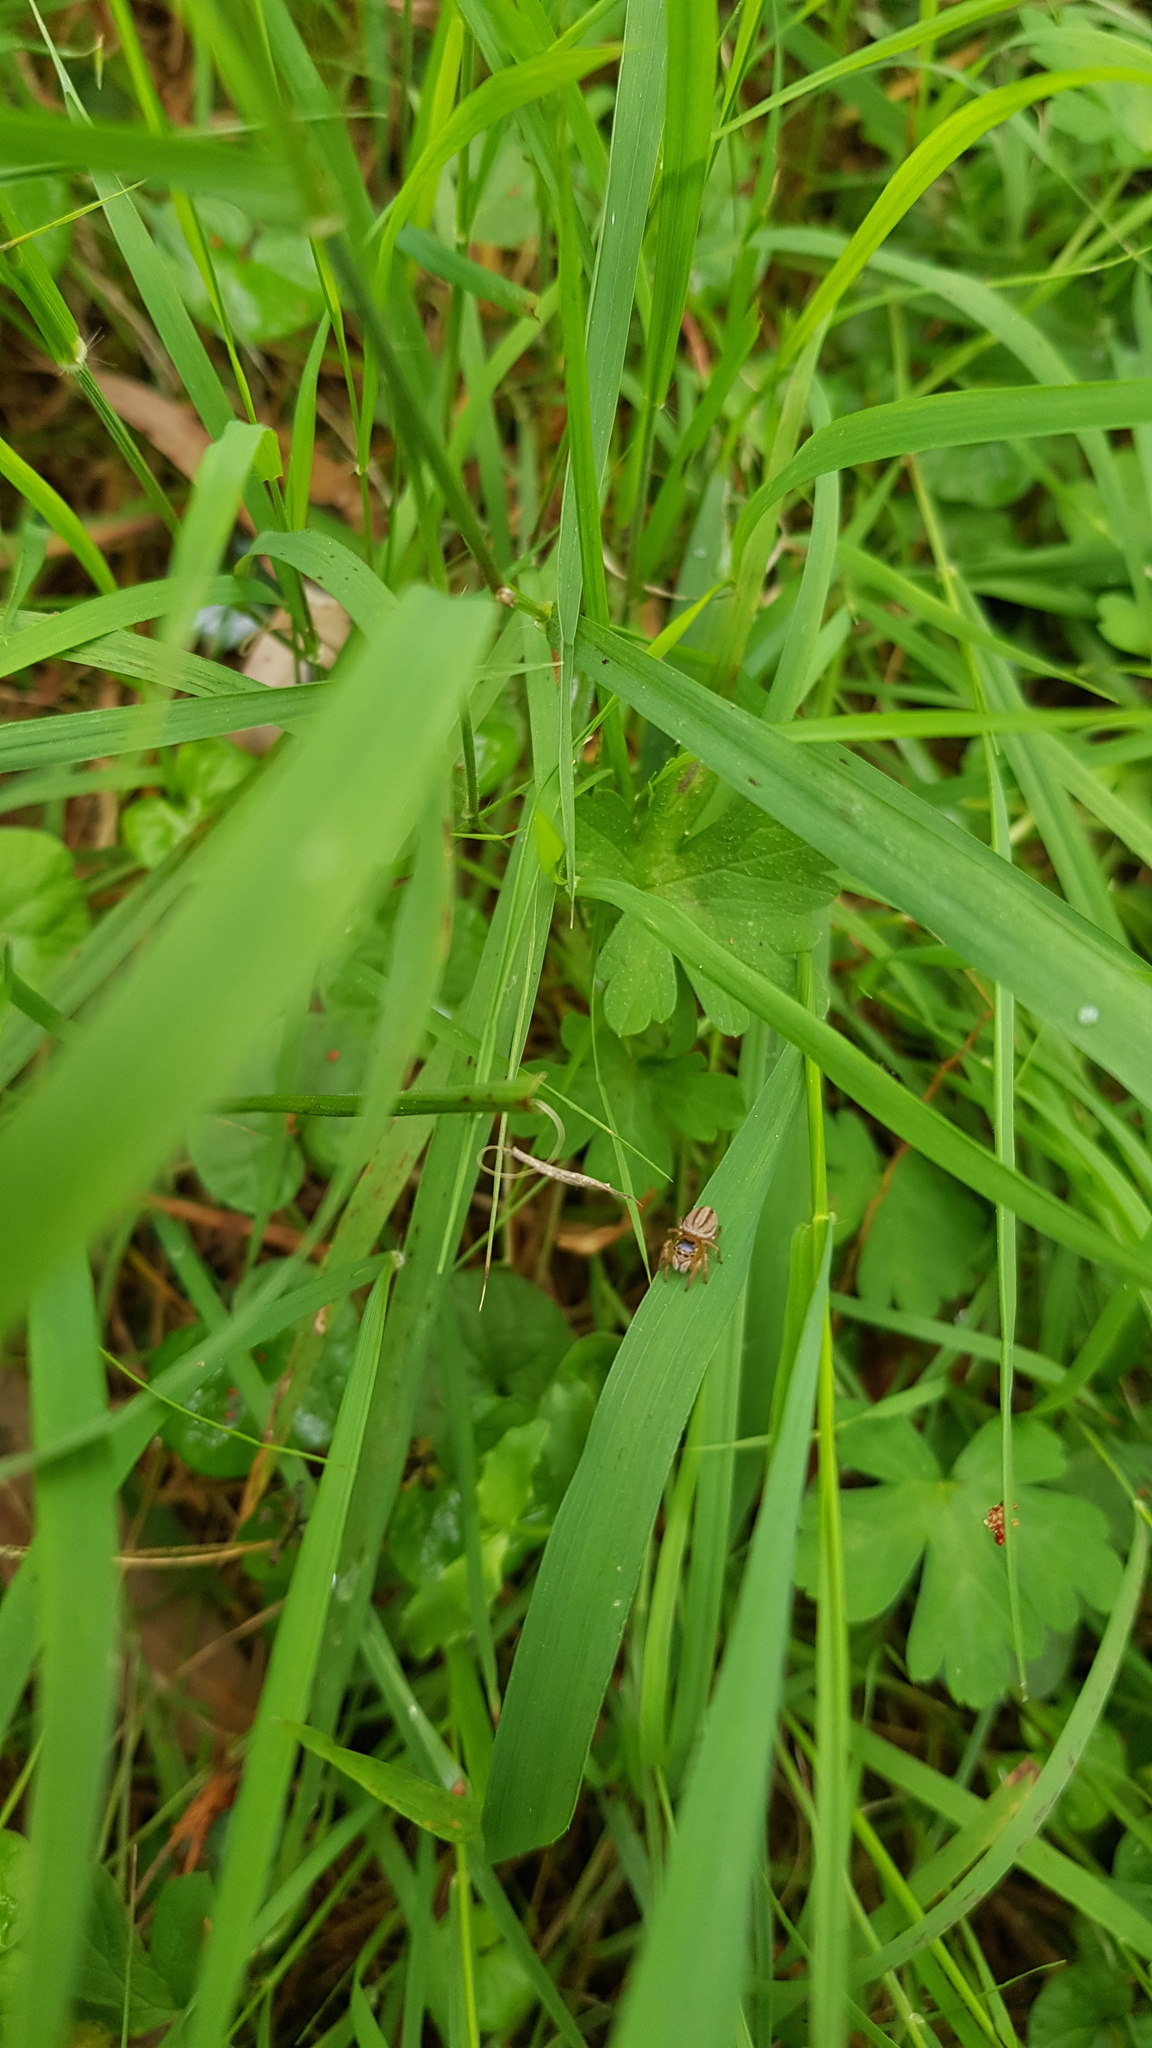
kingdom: Animalia
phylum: Arthropoda
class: Arachnida
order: Araneae
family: Salticidae
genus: Maratus
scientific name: Maratus scutulatus
